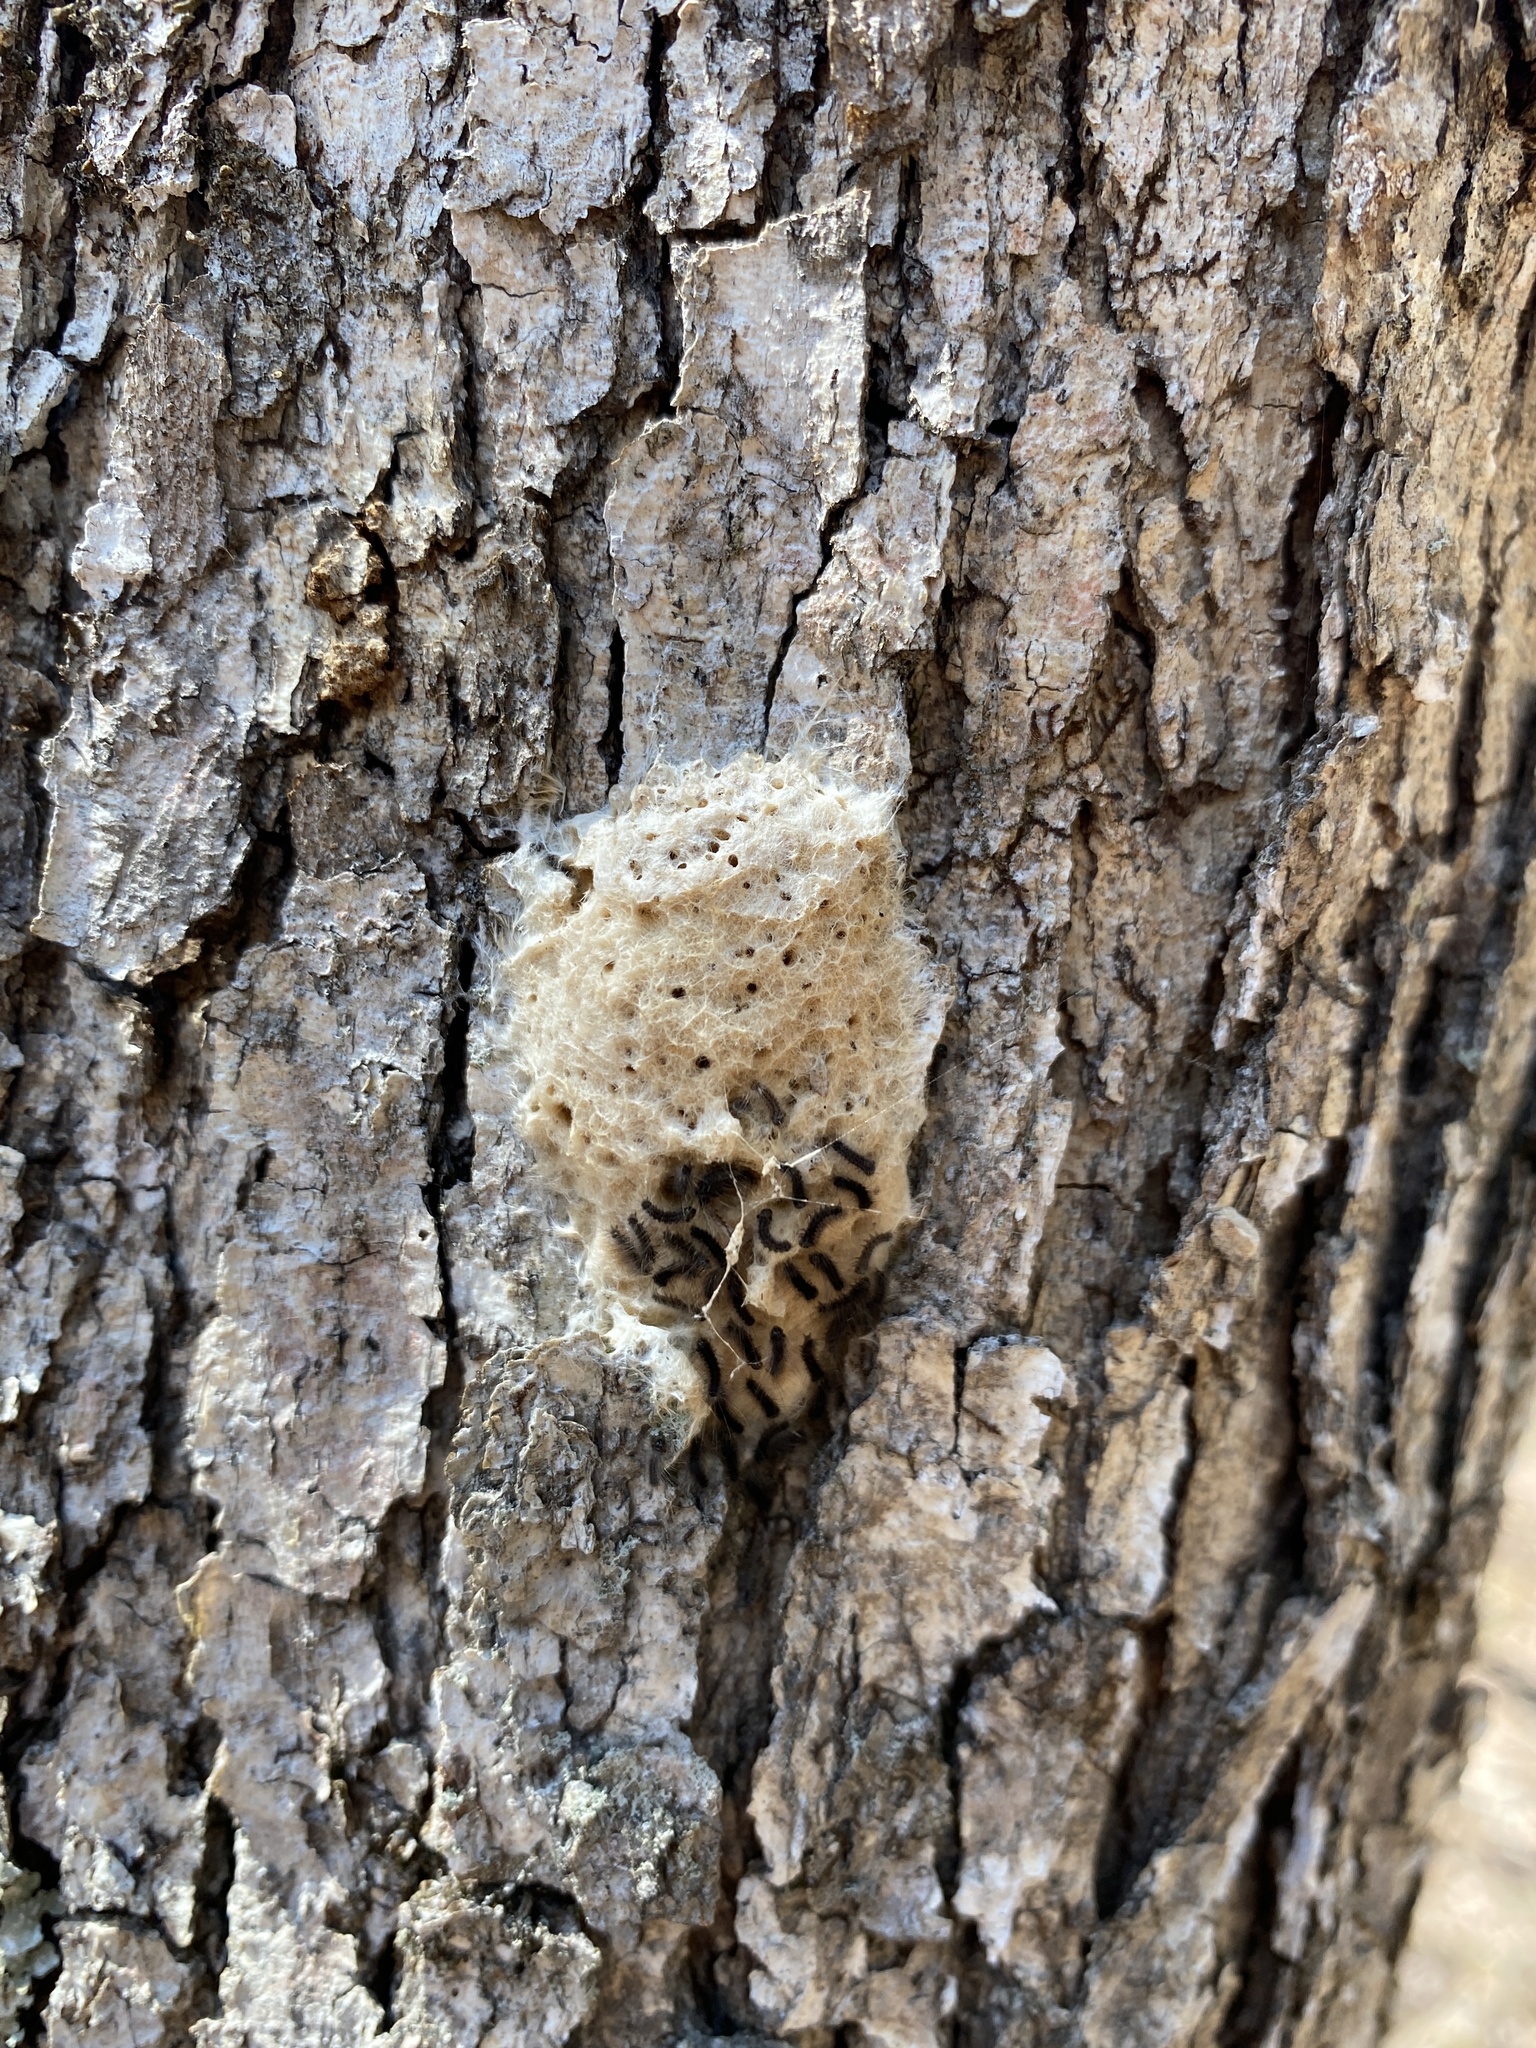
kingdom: Animalia
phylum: Arthropoda
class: Insecta
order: Lepidoptera
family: Erebidae
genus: Lymantria
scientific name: Lymantria dispar
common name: Gypsy moth
